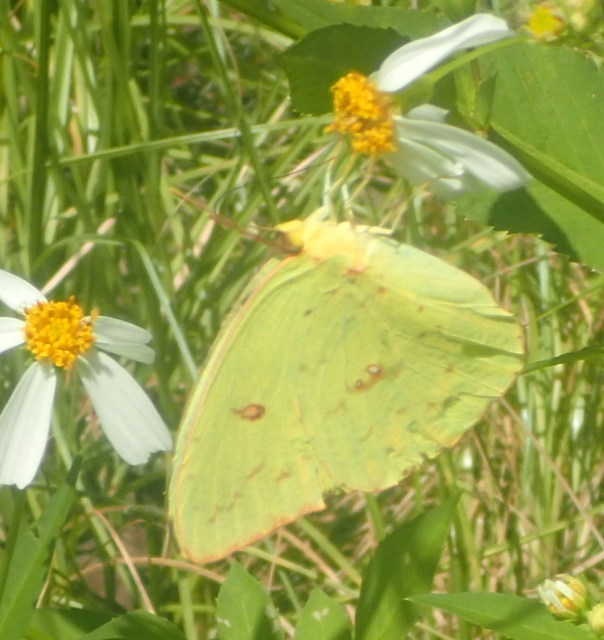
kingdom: Animalia
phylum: Arthropoda
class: Insecta
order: Lepidoptera
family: Pieridae
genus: Phoebis
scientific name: Phoebis sennae
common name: Cloudless sulphur
